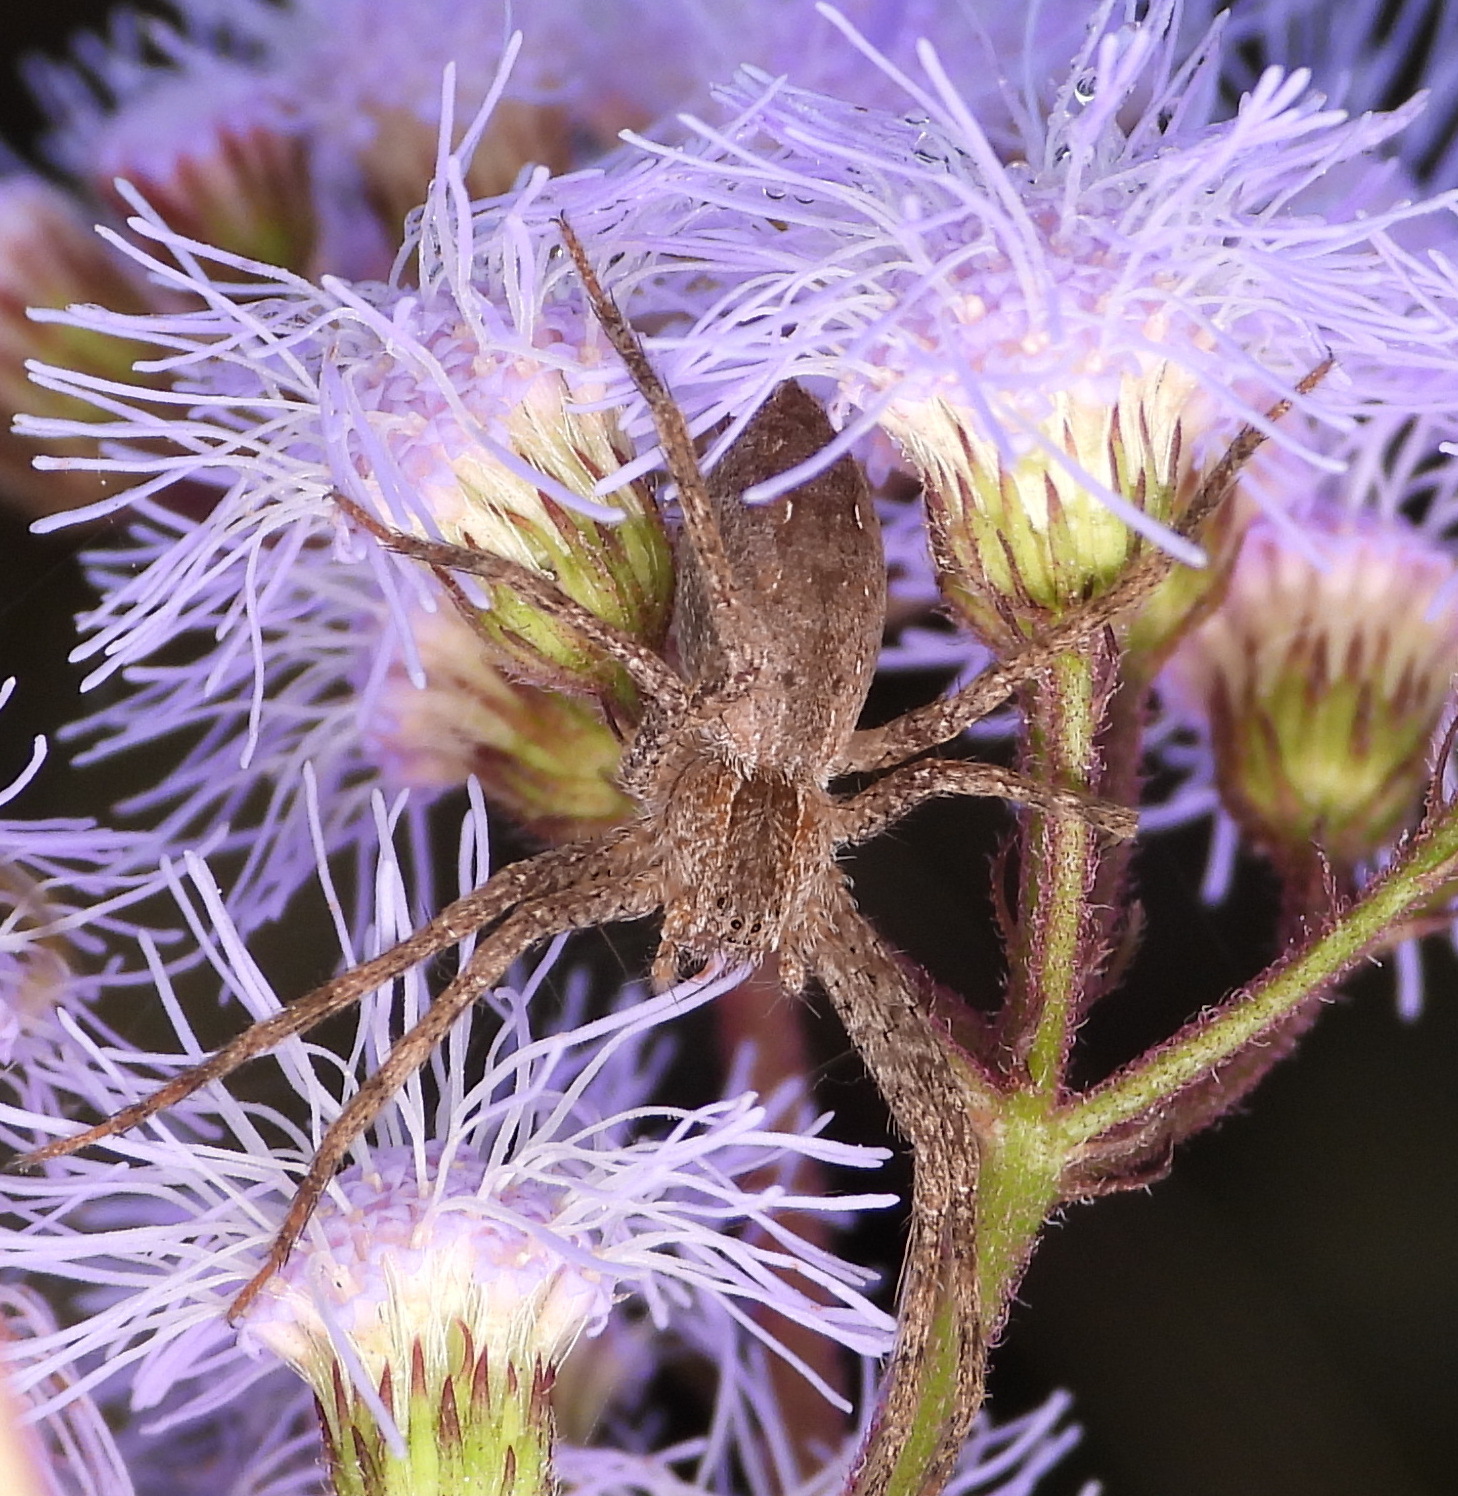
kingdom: Animalia
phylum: Arthropoda
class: Arachnida
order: Araneae
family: Pisauridae
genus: Pisaurina
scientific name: Pisaurina mira
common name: American nursery web spider
